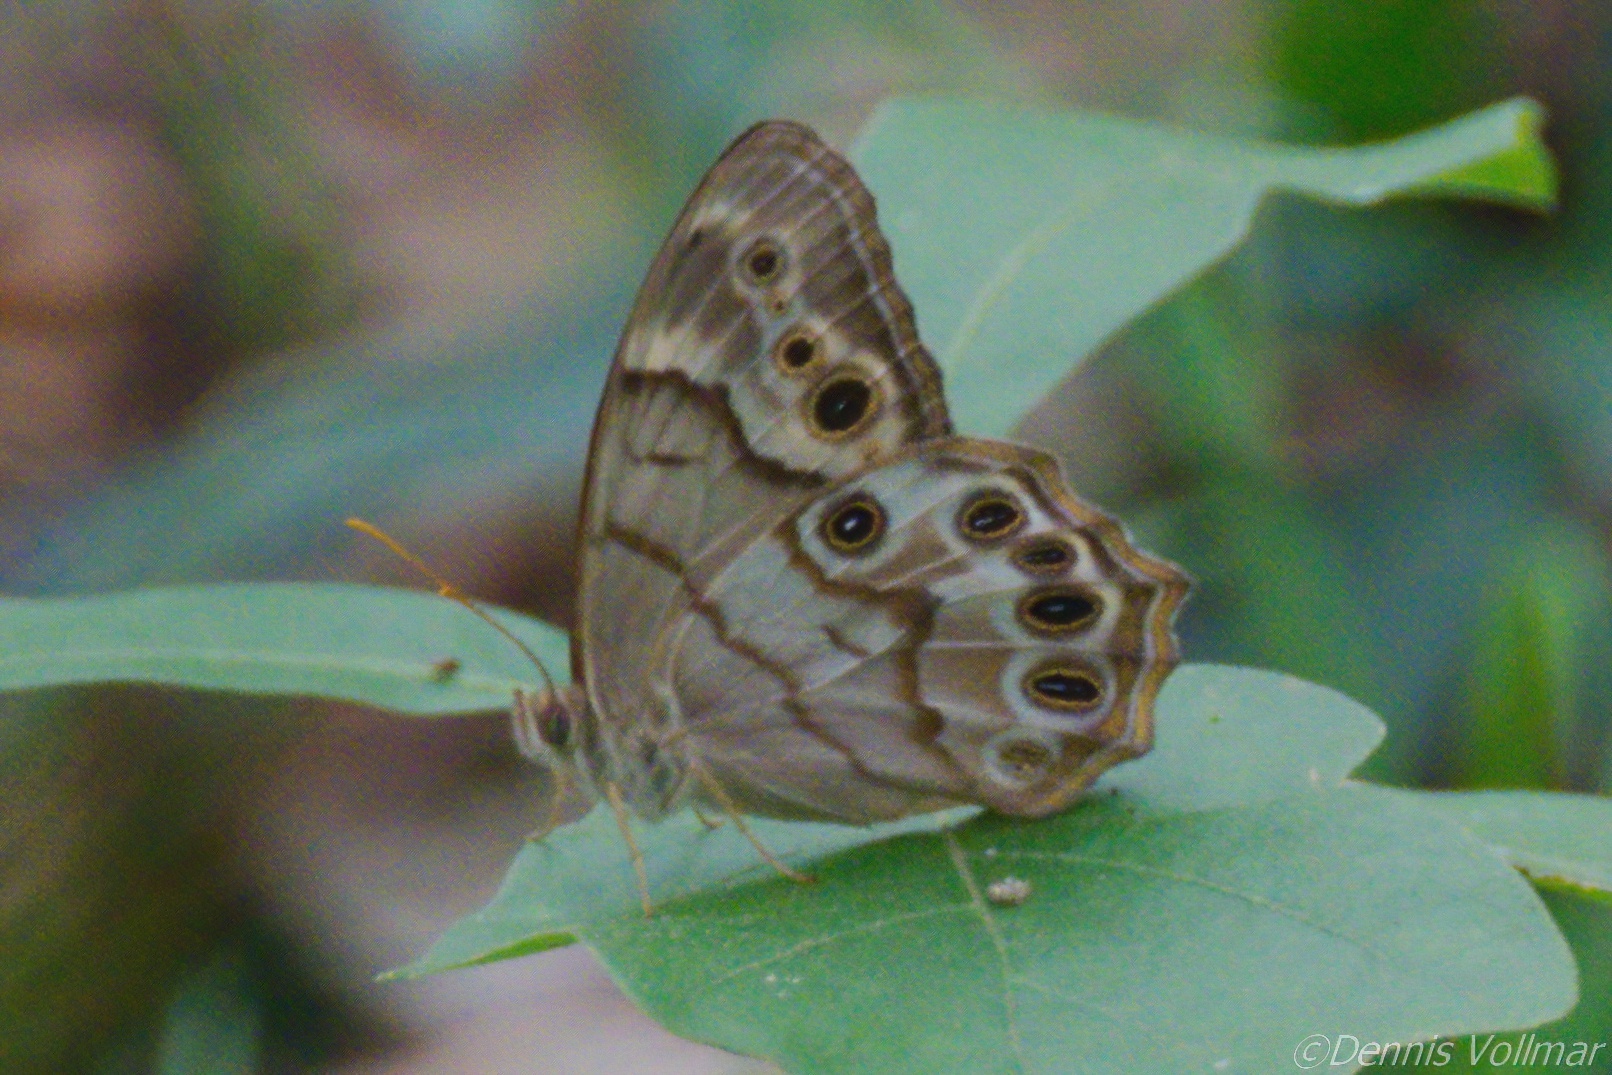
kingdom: Animalia
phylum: Arthropoda
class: Insecta
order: Lepidoptera
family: Nymphalidae
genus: Enodia
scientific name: Enodia portlandia
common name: Southern pearly-eye
